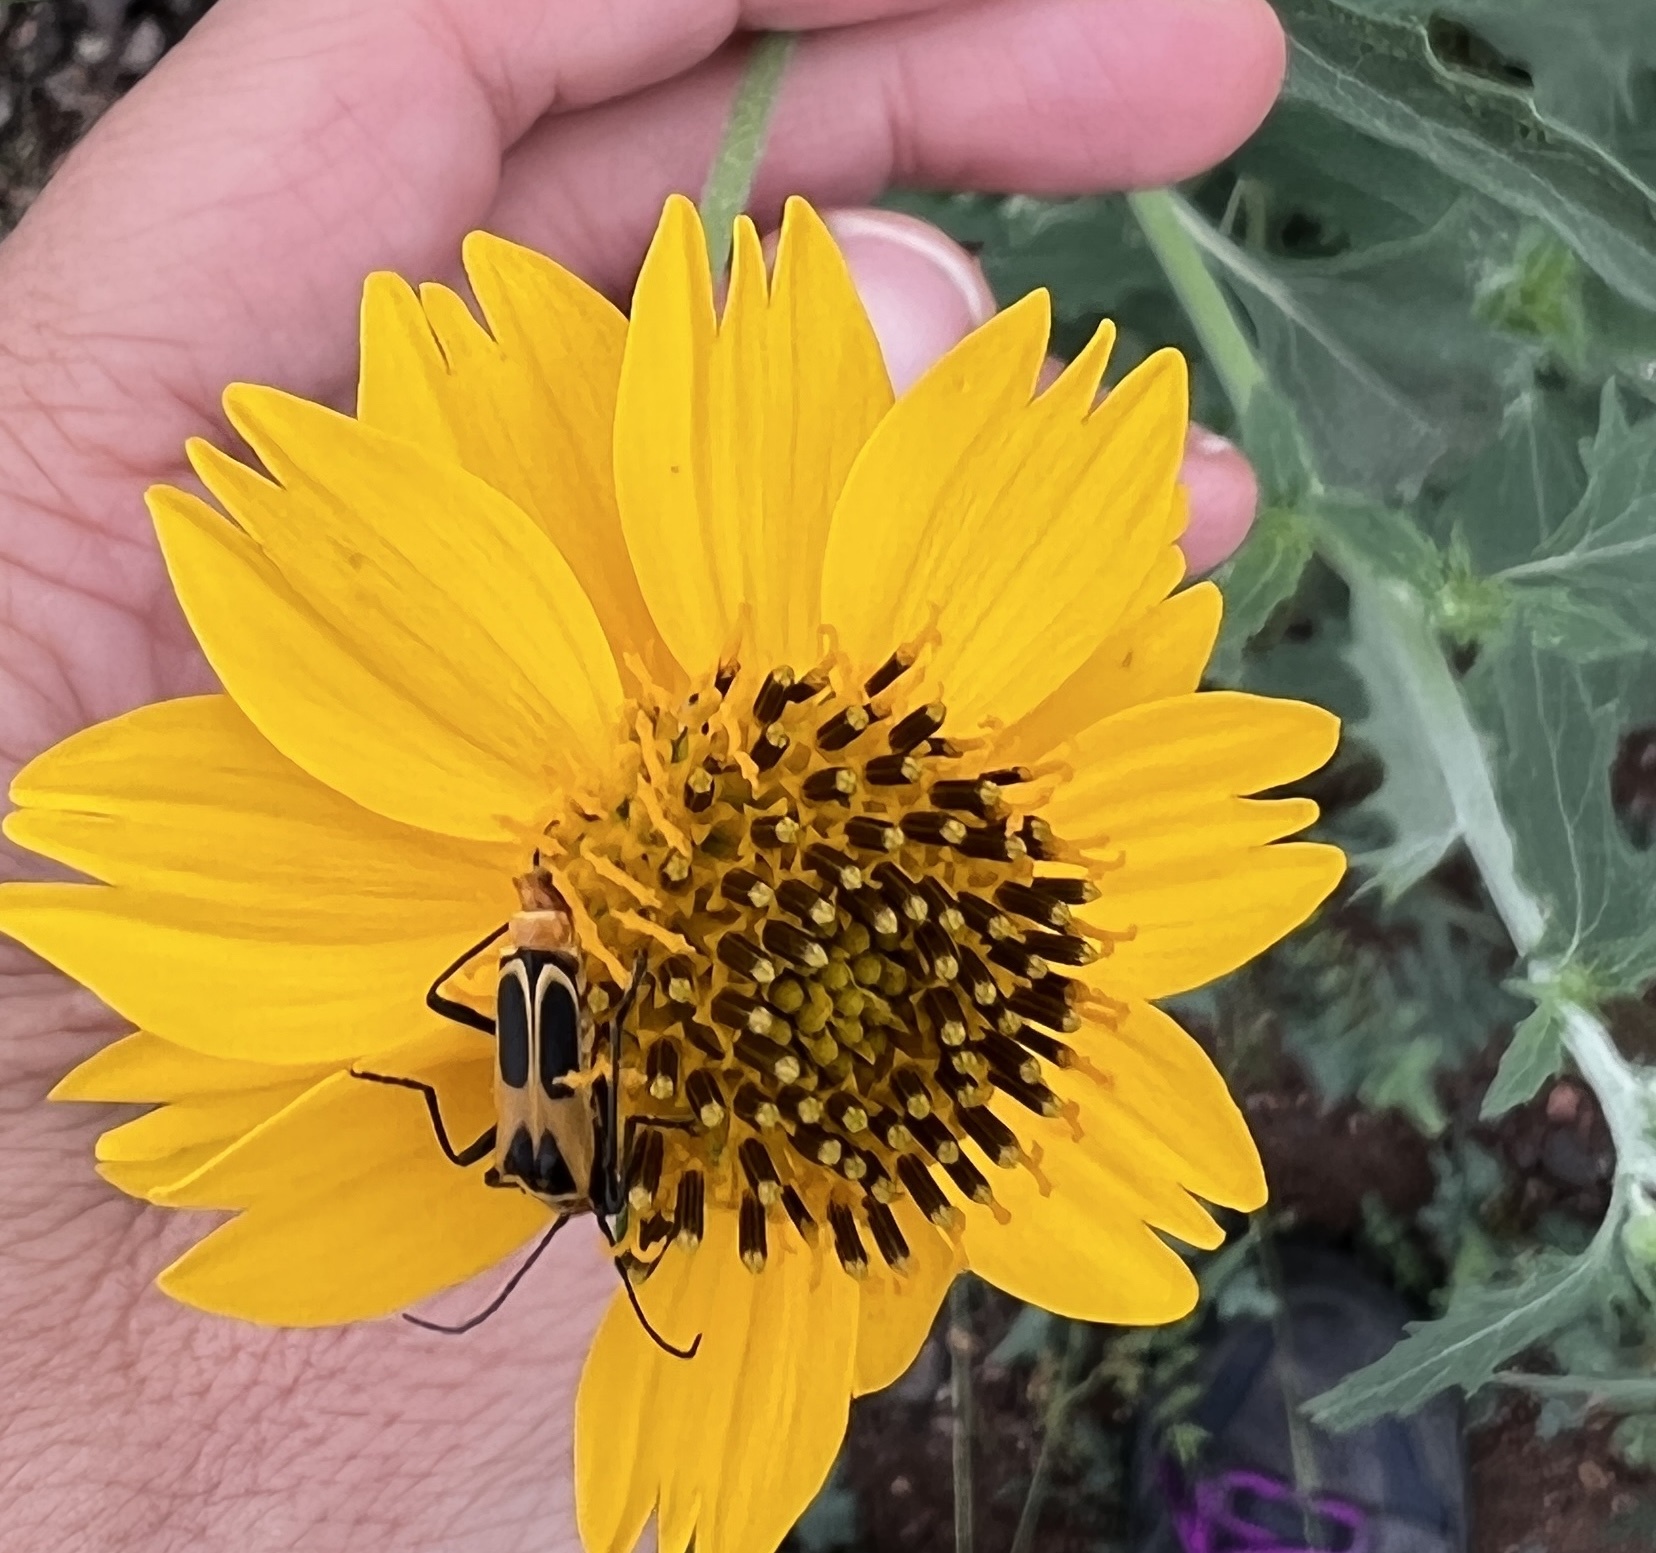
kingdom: Animalia
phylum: Arthropoda
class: Insecta
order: Coleoptera
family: Cantharidae
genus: Chauliognathus
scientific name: Chauliognathus
